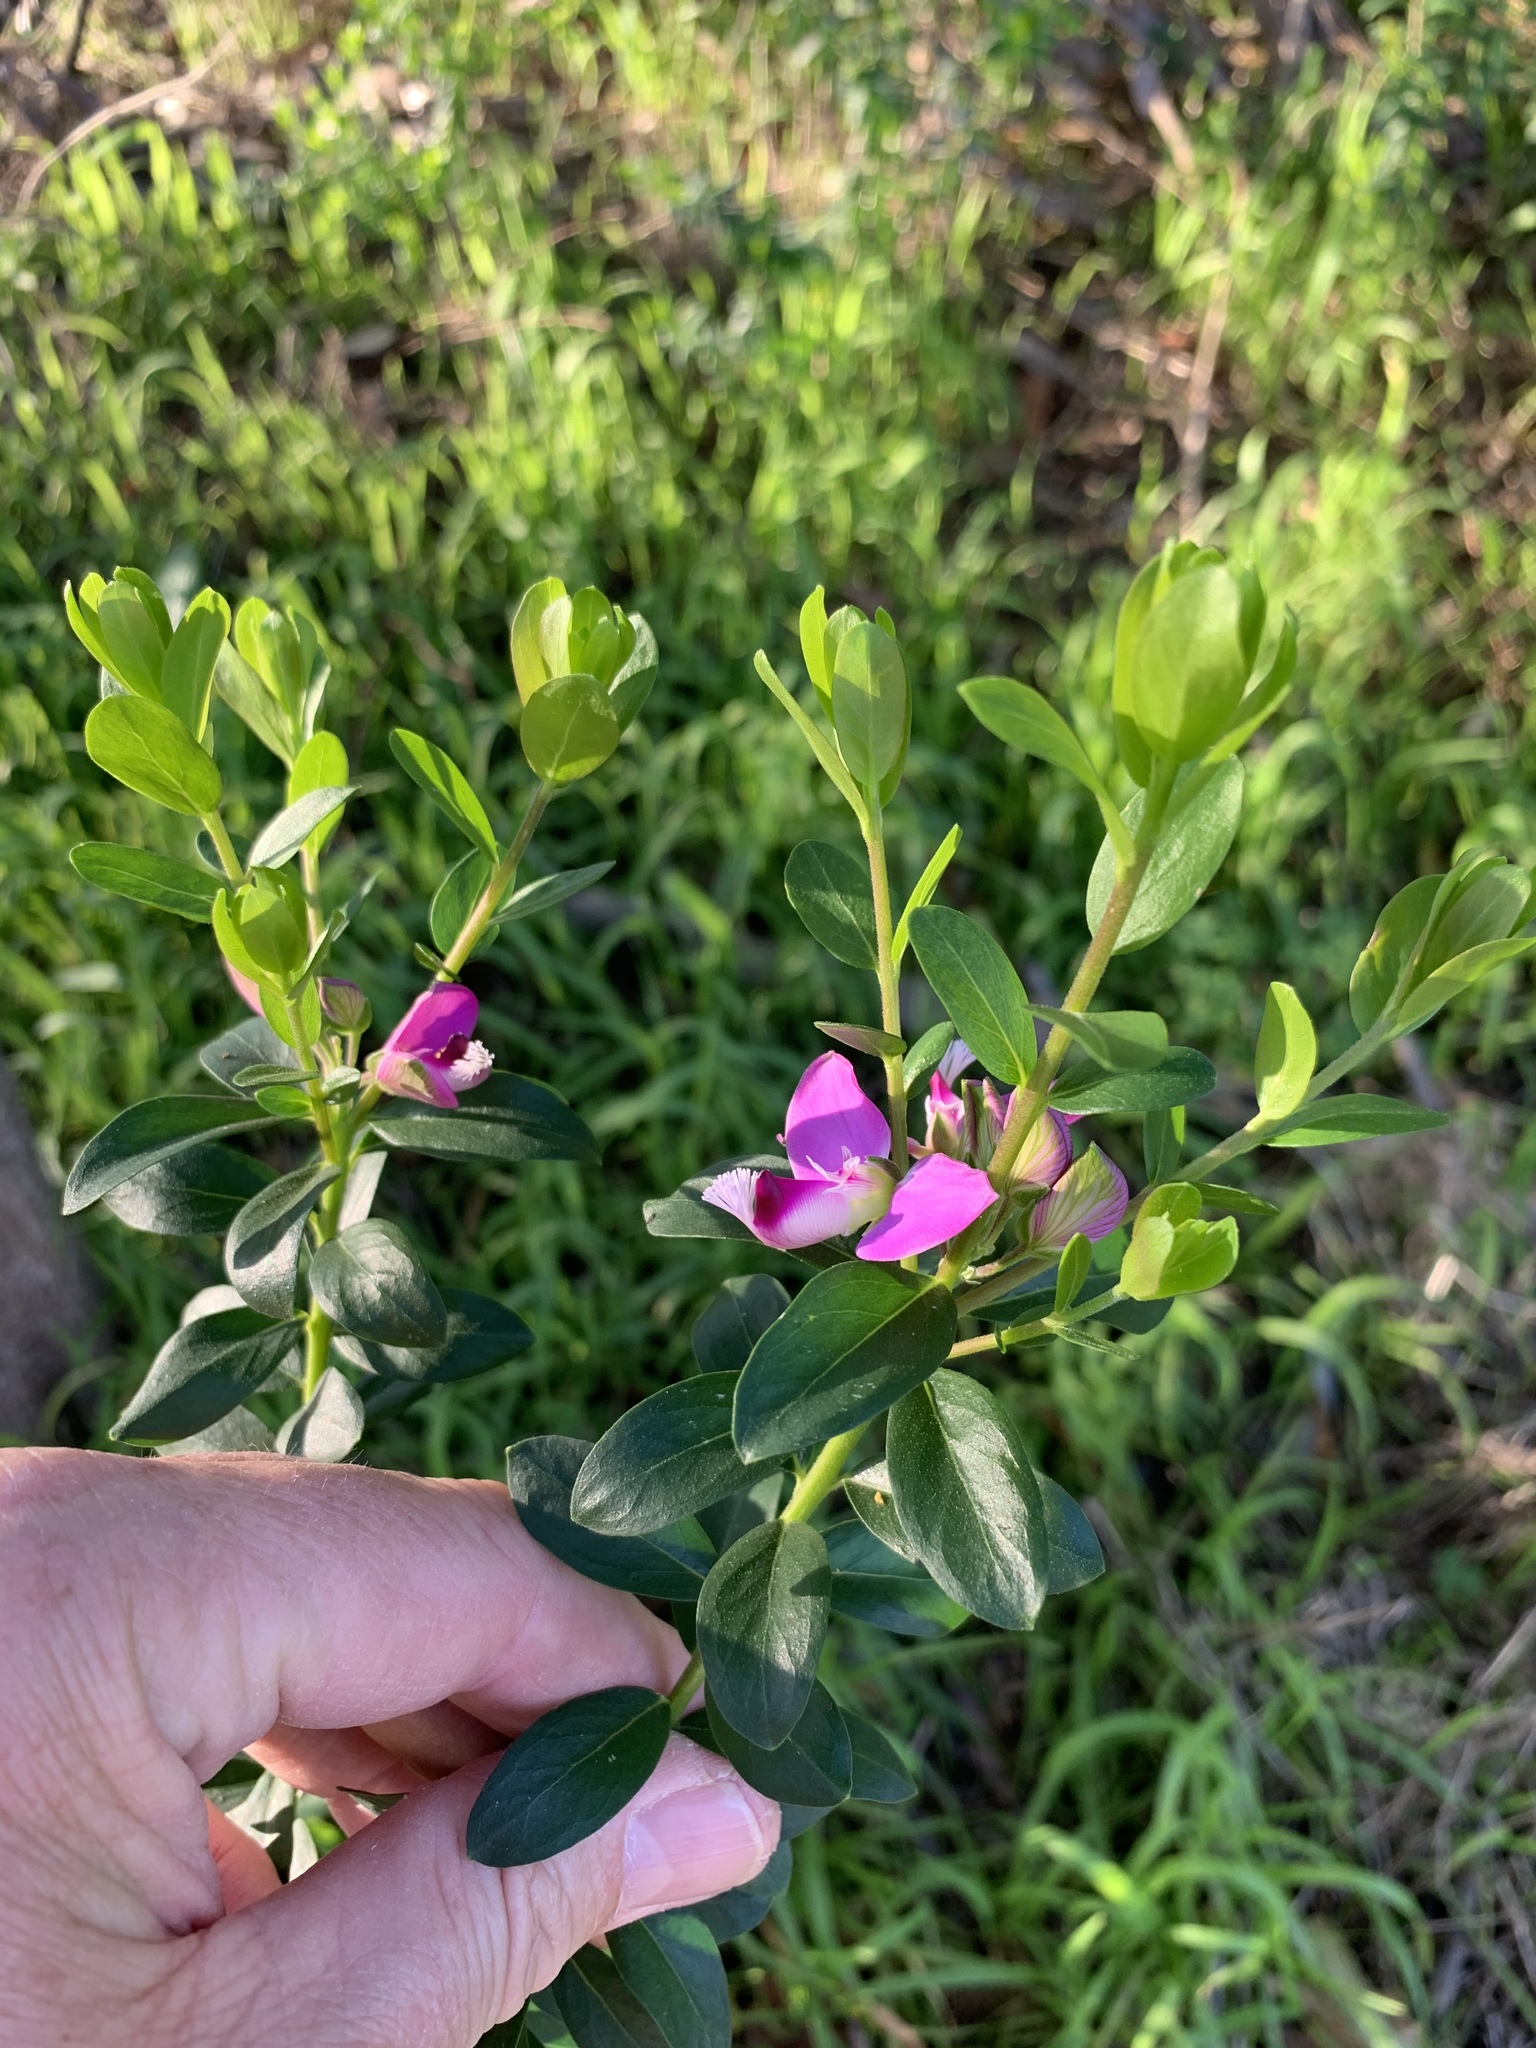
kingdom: Plantae
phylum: Tracheophyta
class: Magnoliopsida
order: Fabales
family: Polygalaceae
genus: Polygala
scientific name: Polygala myrtifolia
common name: Myrtle-leaf milkwort
